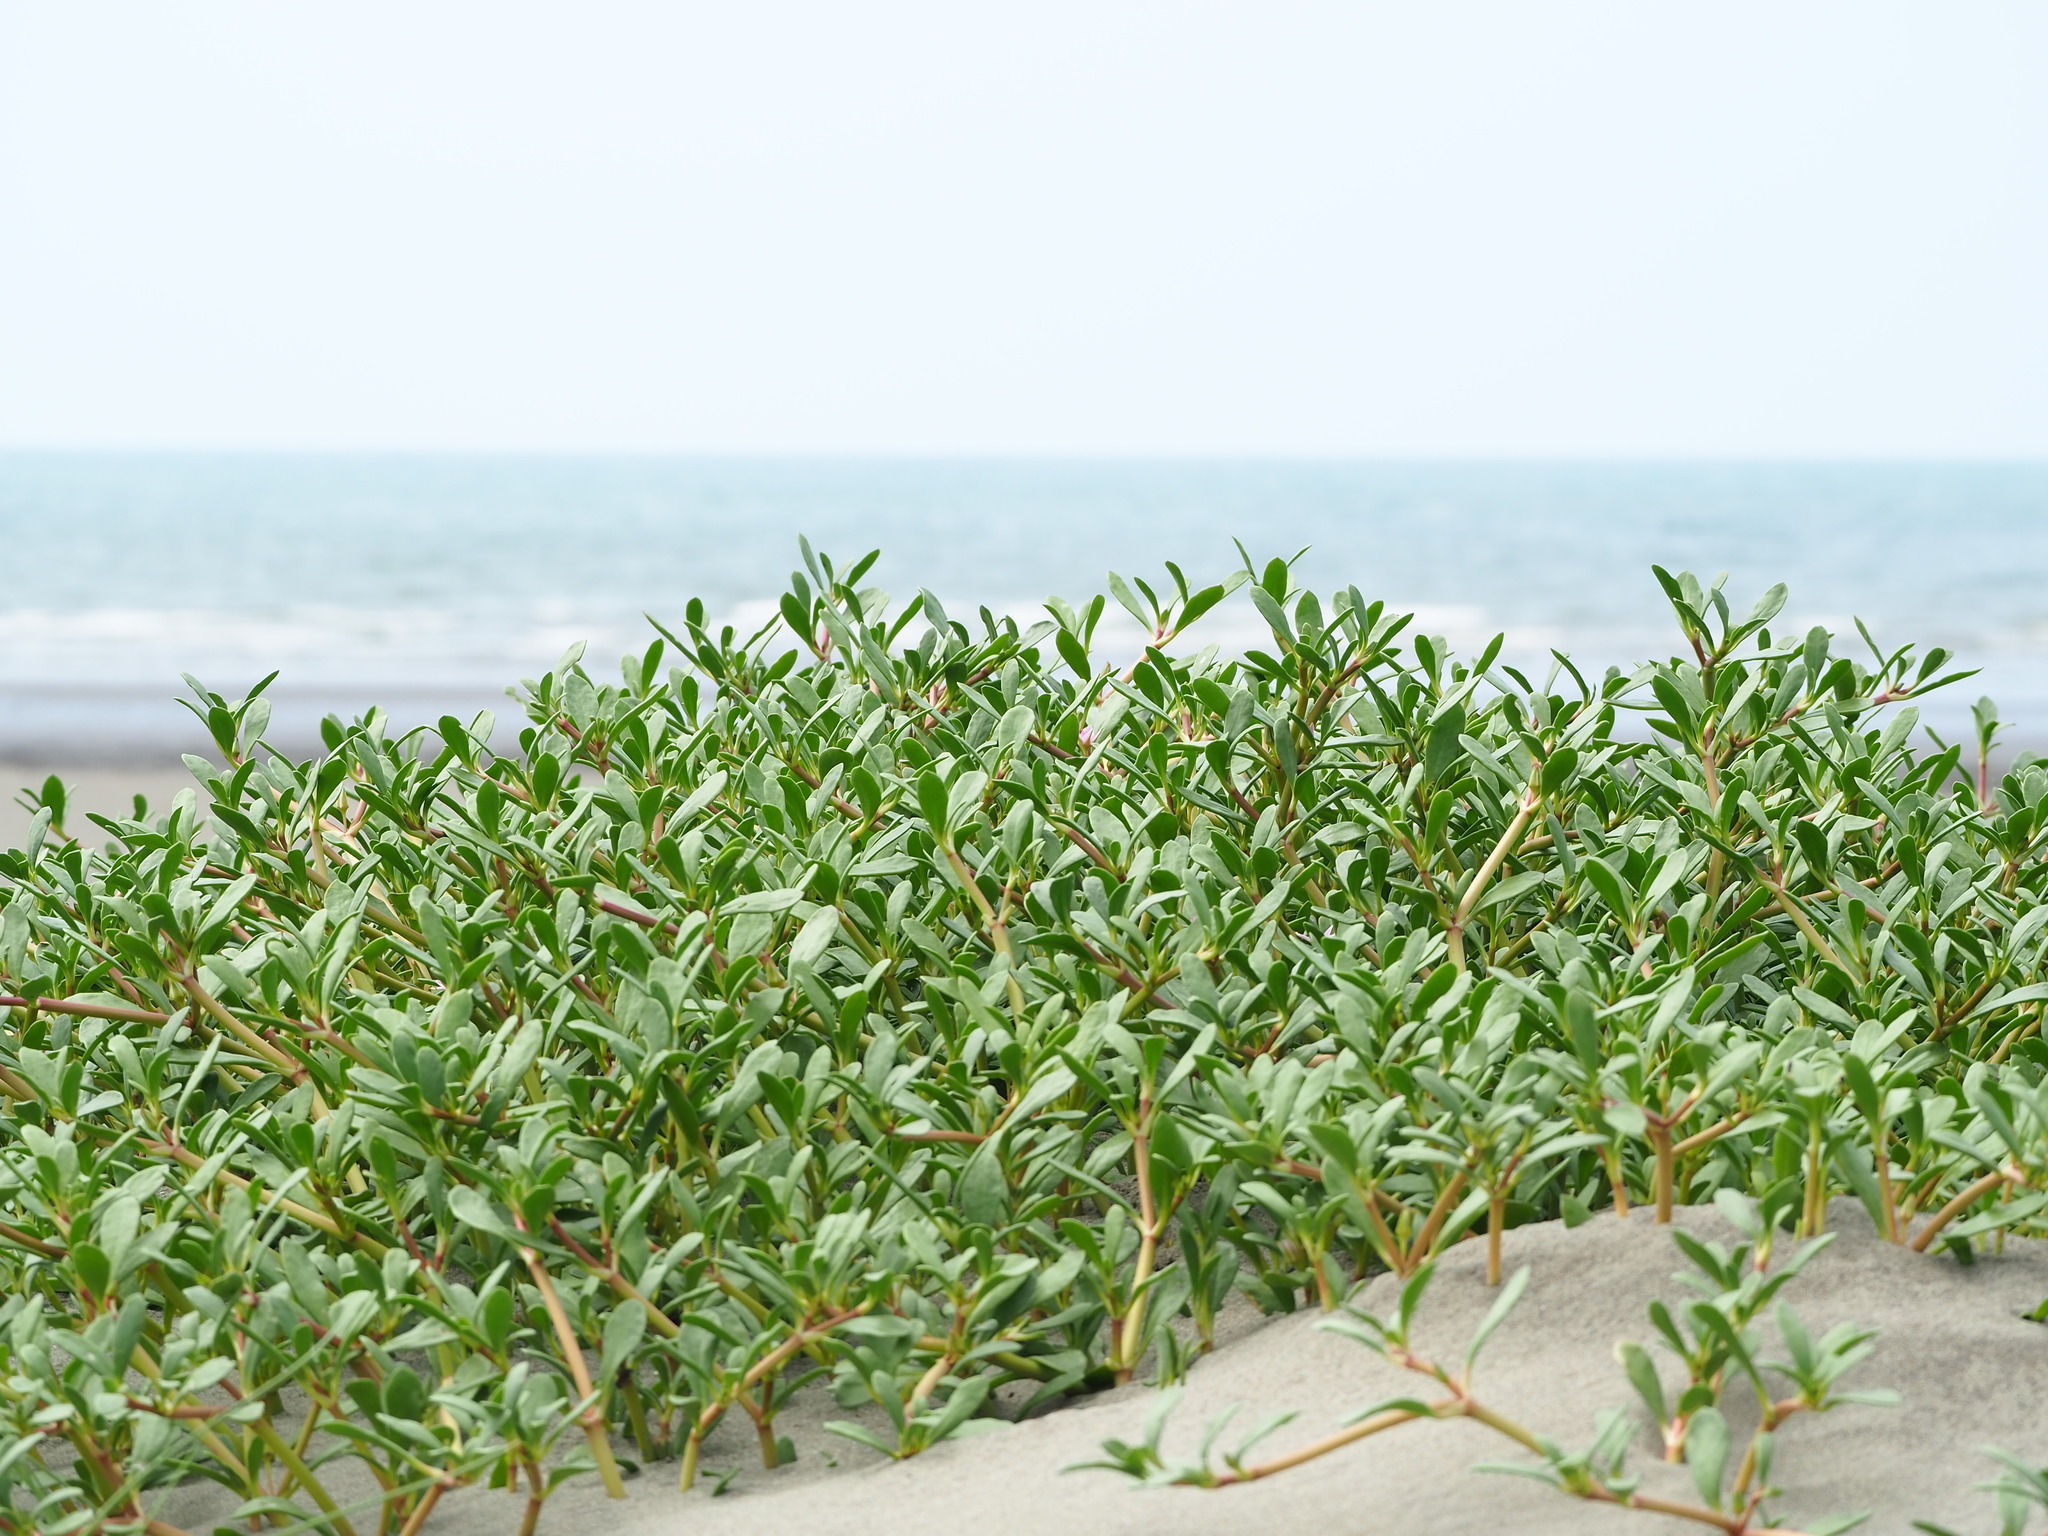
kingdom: Plantae
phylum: Tracheophyta
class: Magnoliopsida
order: Caryophyllales
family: Aizoaceae
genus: Sesuvium
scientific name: Sesuvium portulacastrum
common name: Sea-purslane
